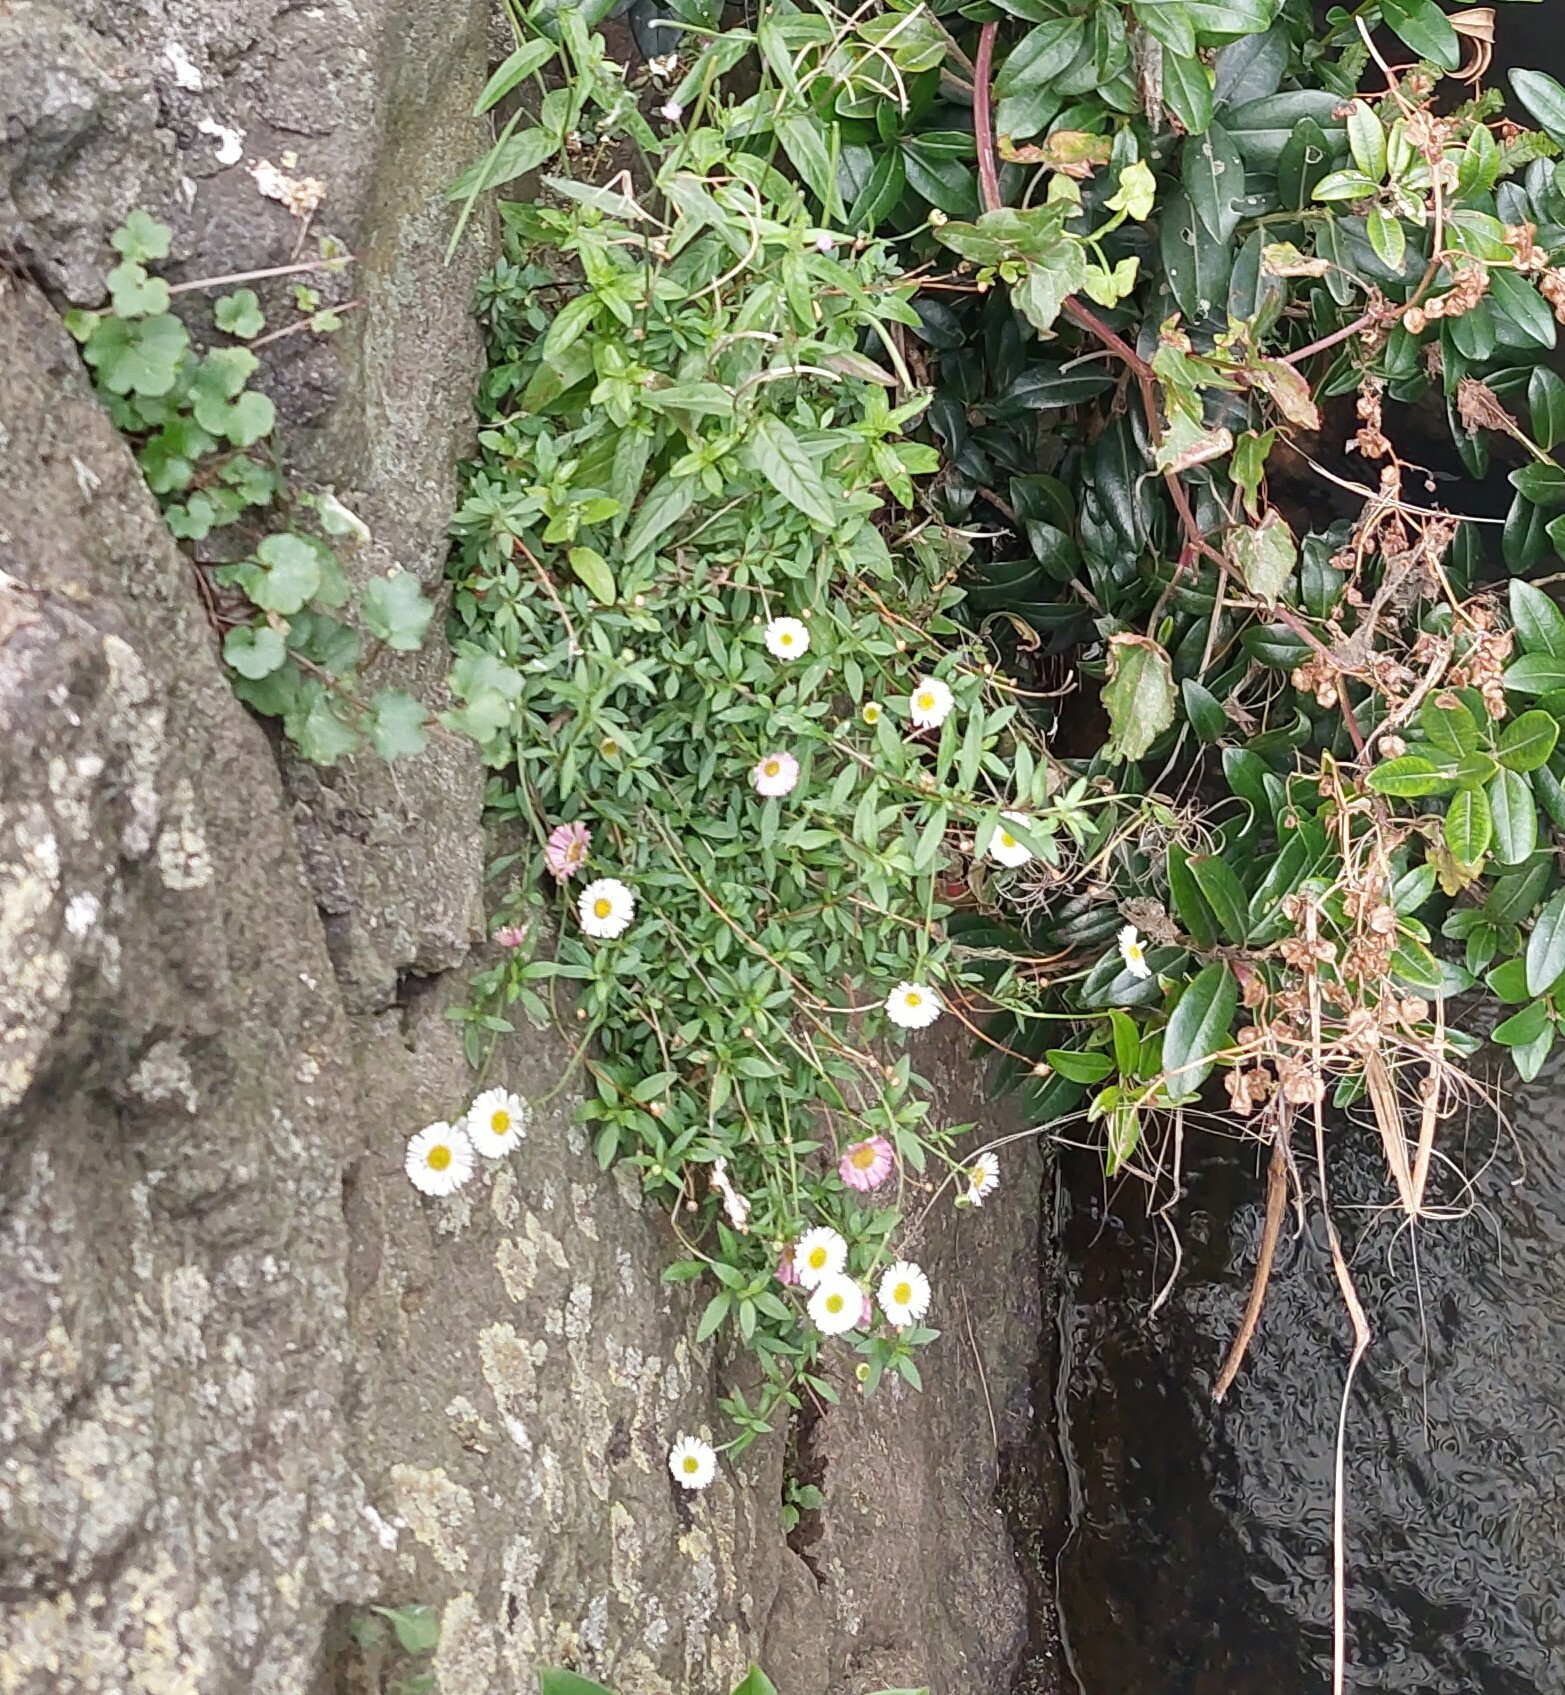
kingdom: Plantae
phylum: Tracheophyta
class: Magnoliopsida
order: Asterales
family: Asteraceae
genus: Erigeron
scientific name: Erigeron karvinskianus
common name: Mexican fleabane
